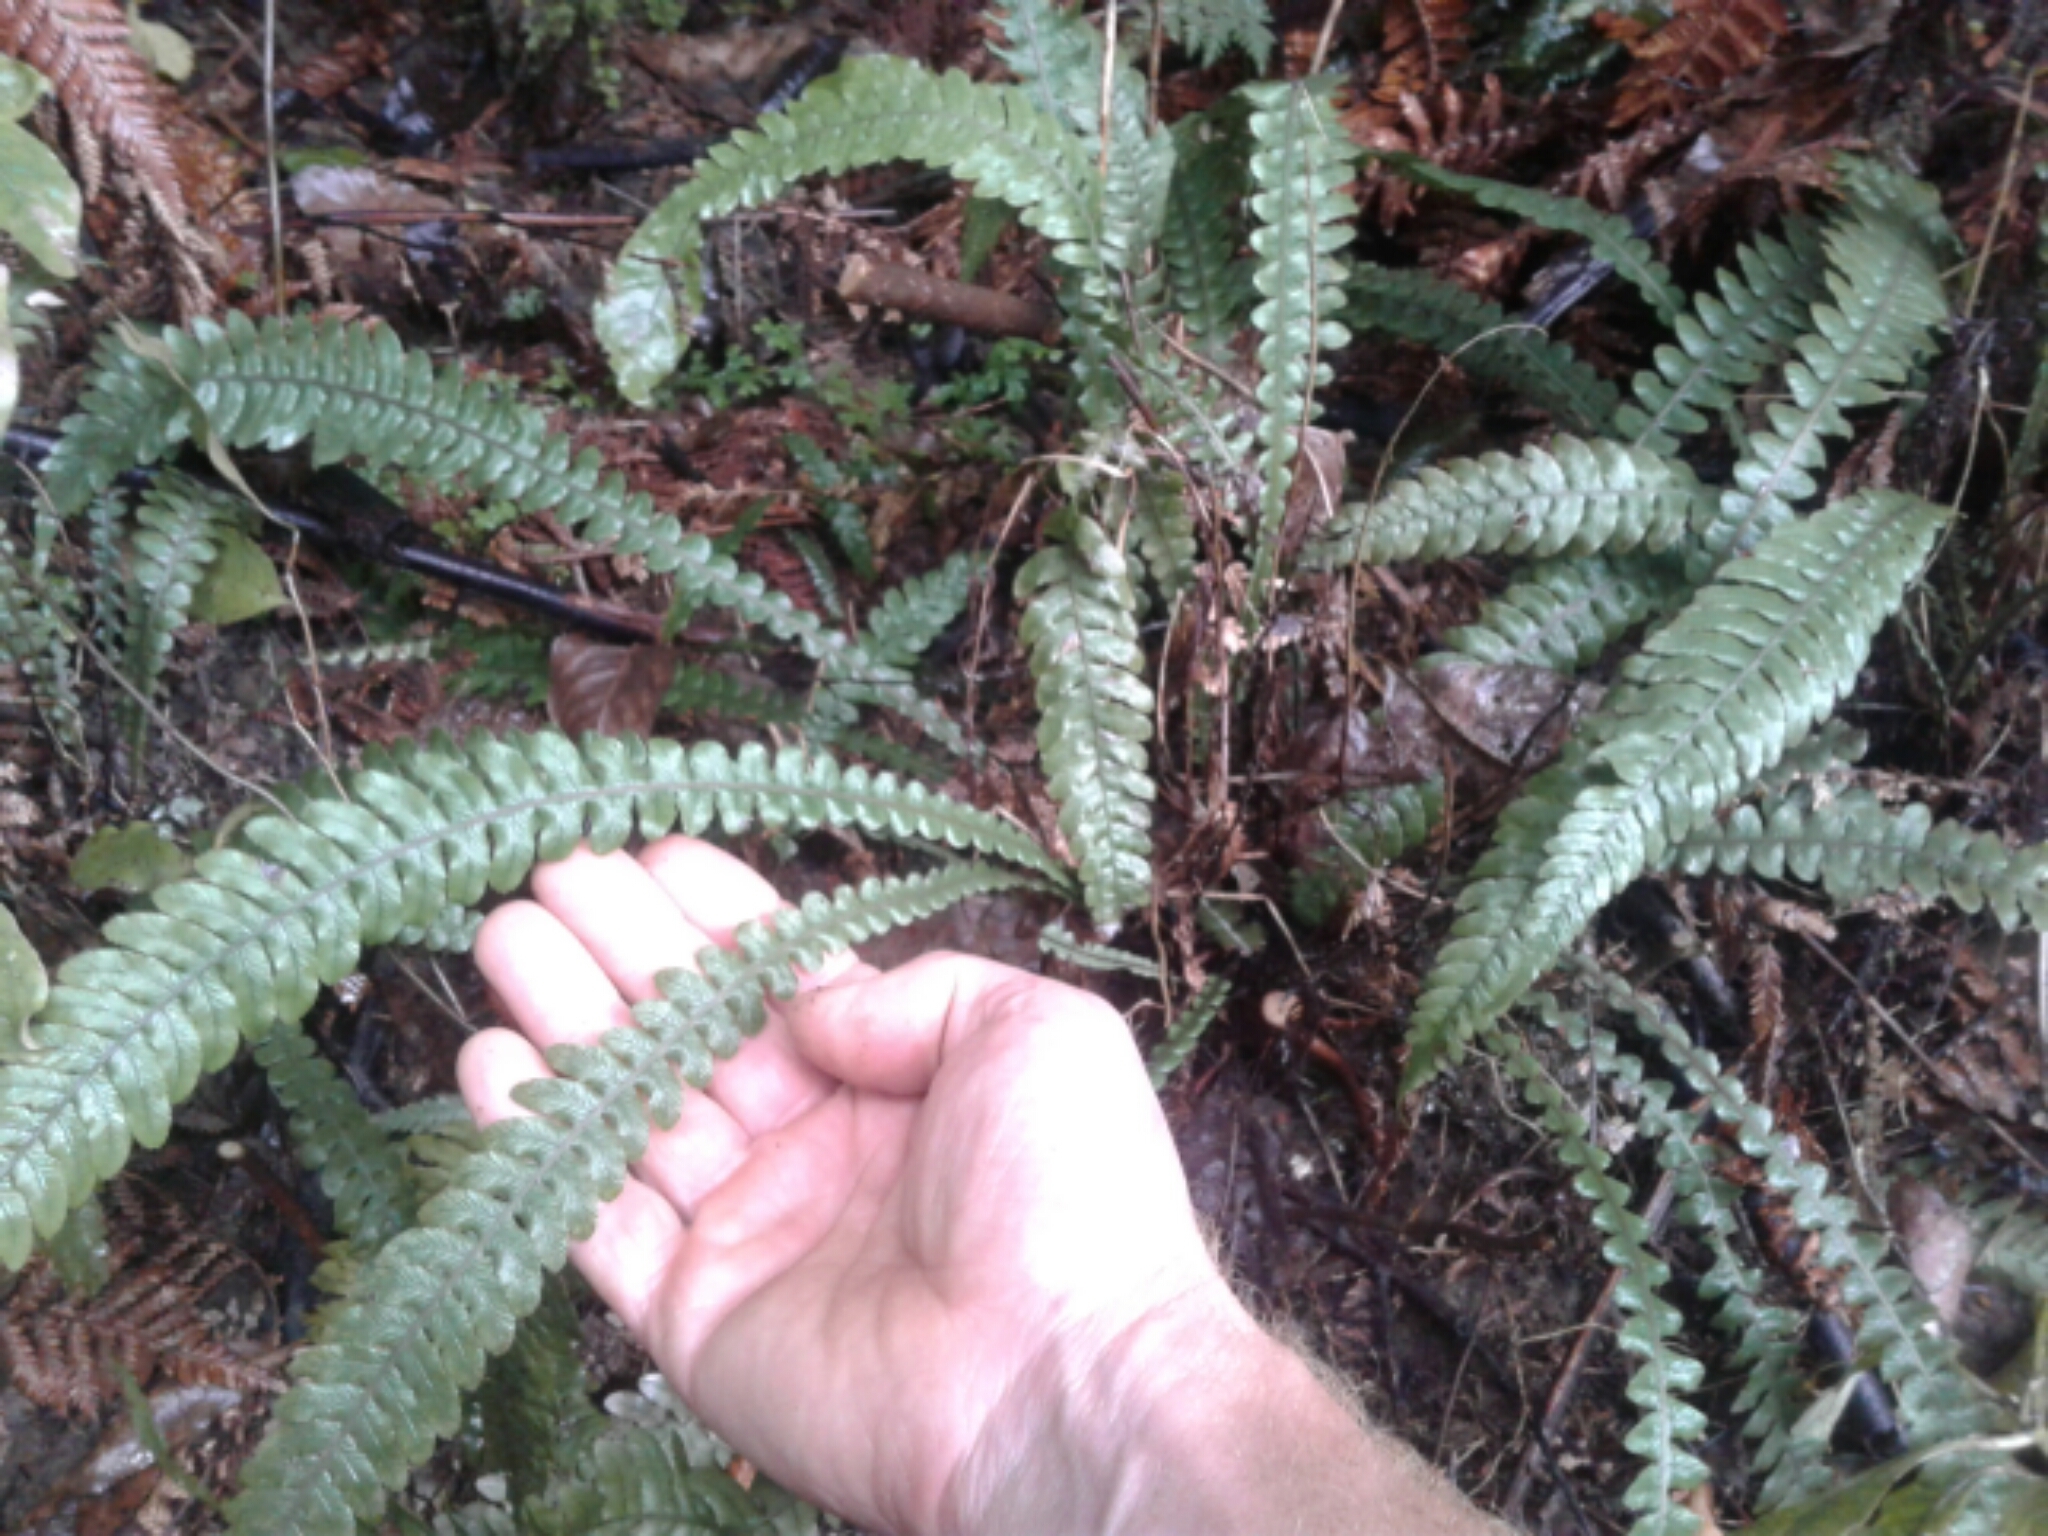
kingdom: Plantae
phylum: Tracheophyta
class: Polypodiopsida
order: Polypodiales
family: Blechnaceae
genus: Austroblechnum
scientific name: Austroblechnum lanceolatum
